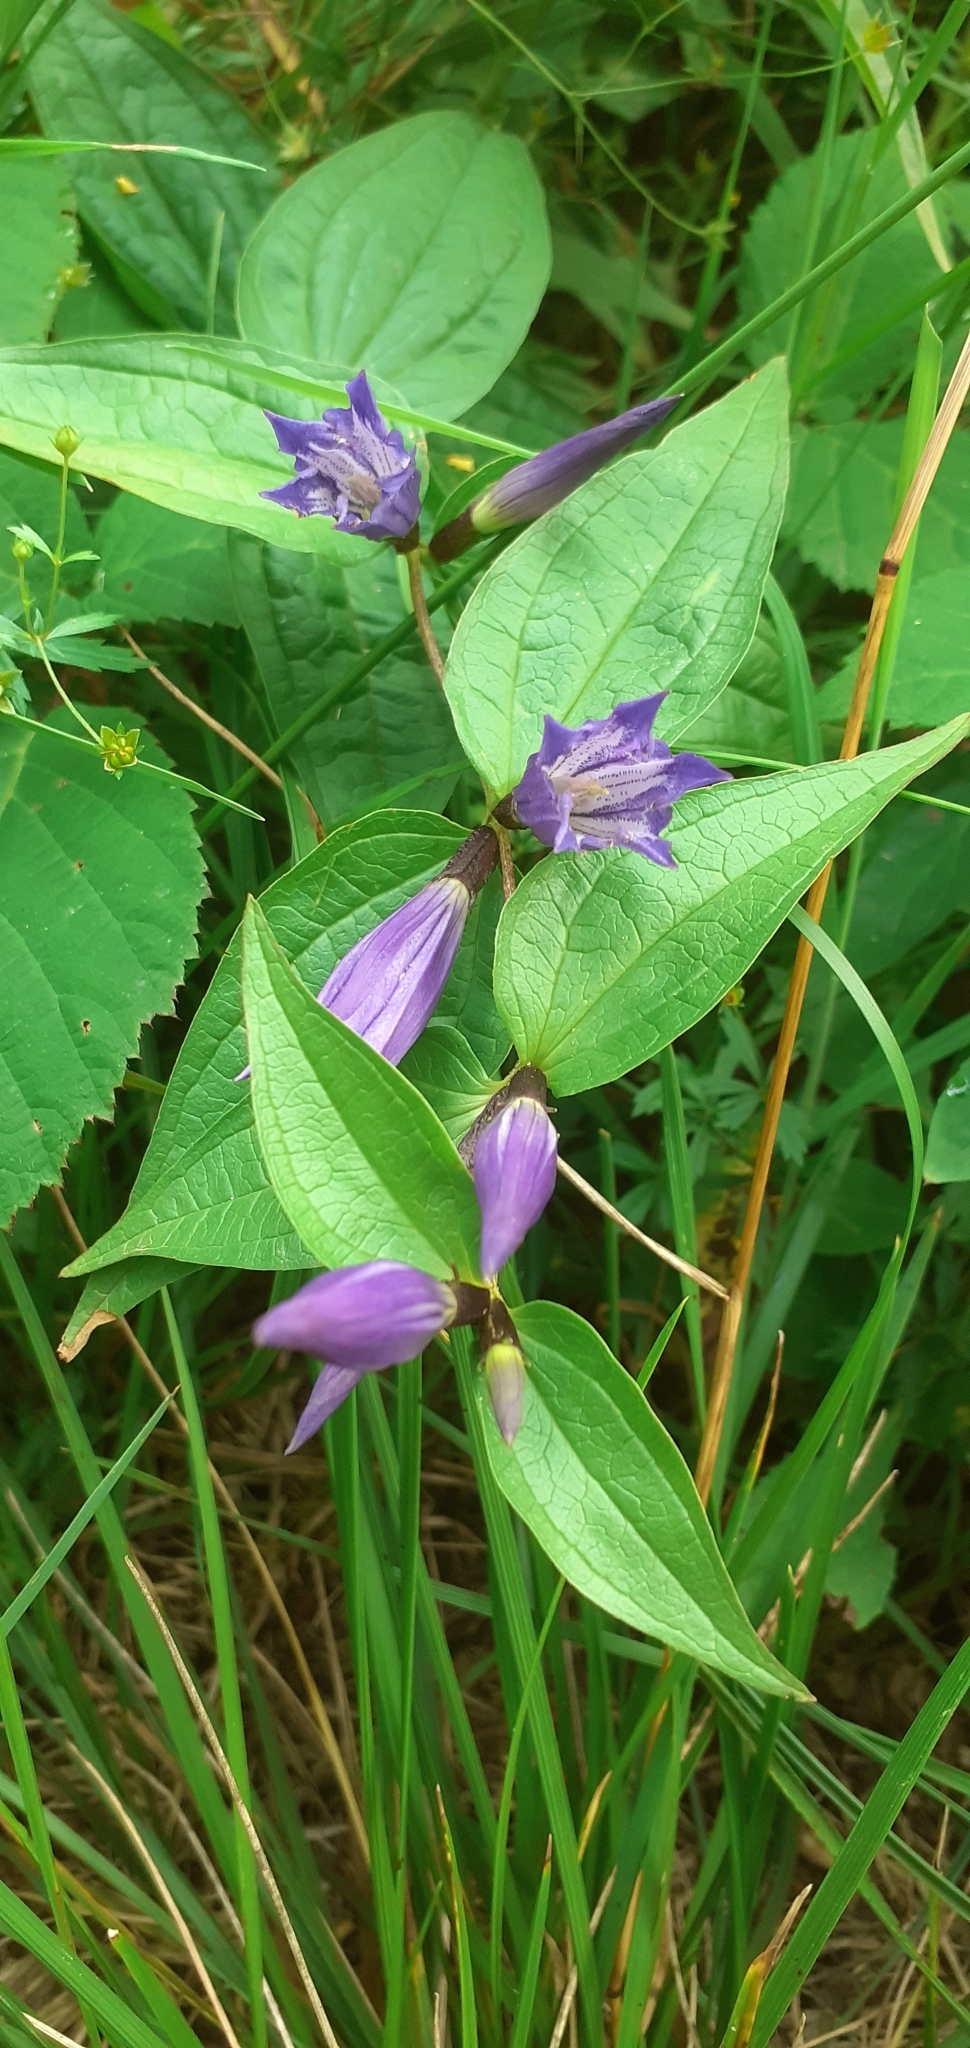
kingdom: Plantae
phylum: Tracheophyta
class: Magnoliopsida
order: Gentianales
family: Gentianaceae
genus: Gentiana
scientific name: Gentiana asclepiadea
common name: Willow gentian
